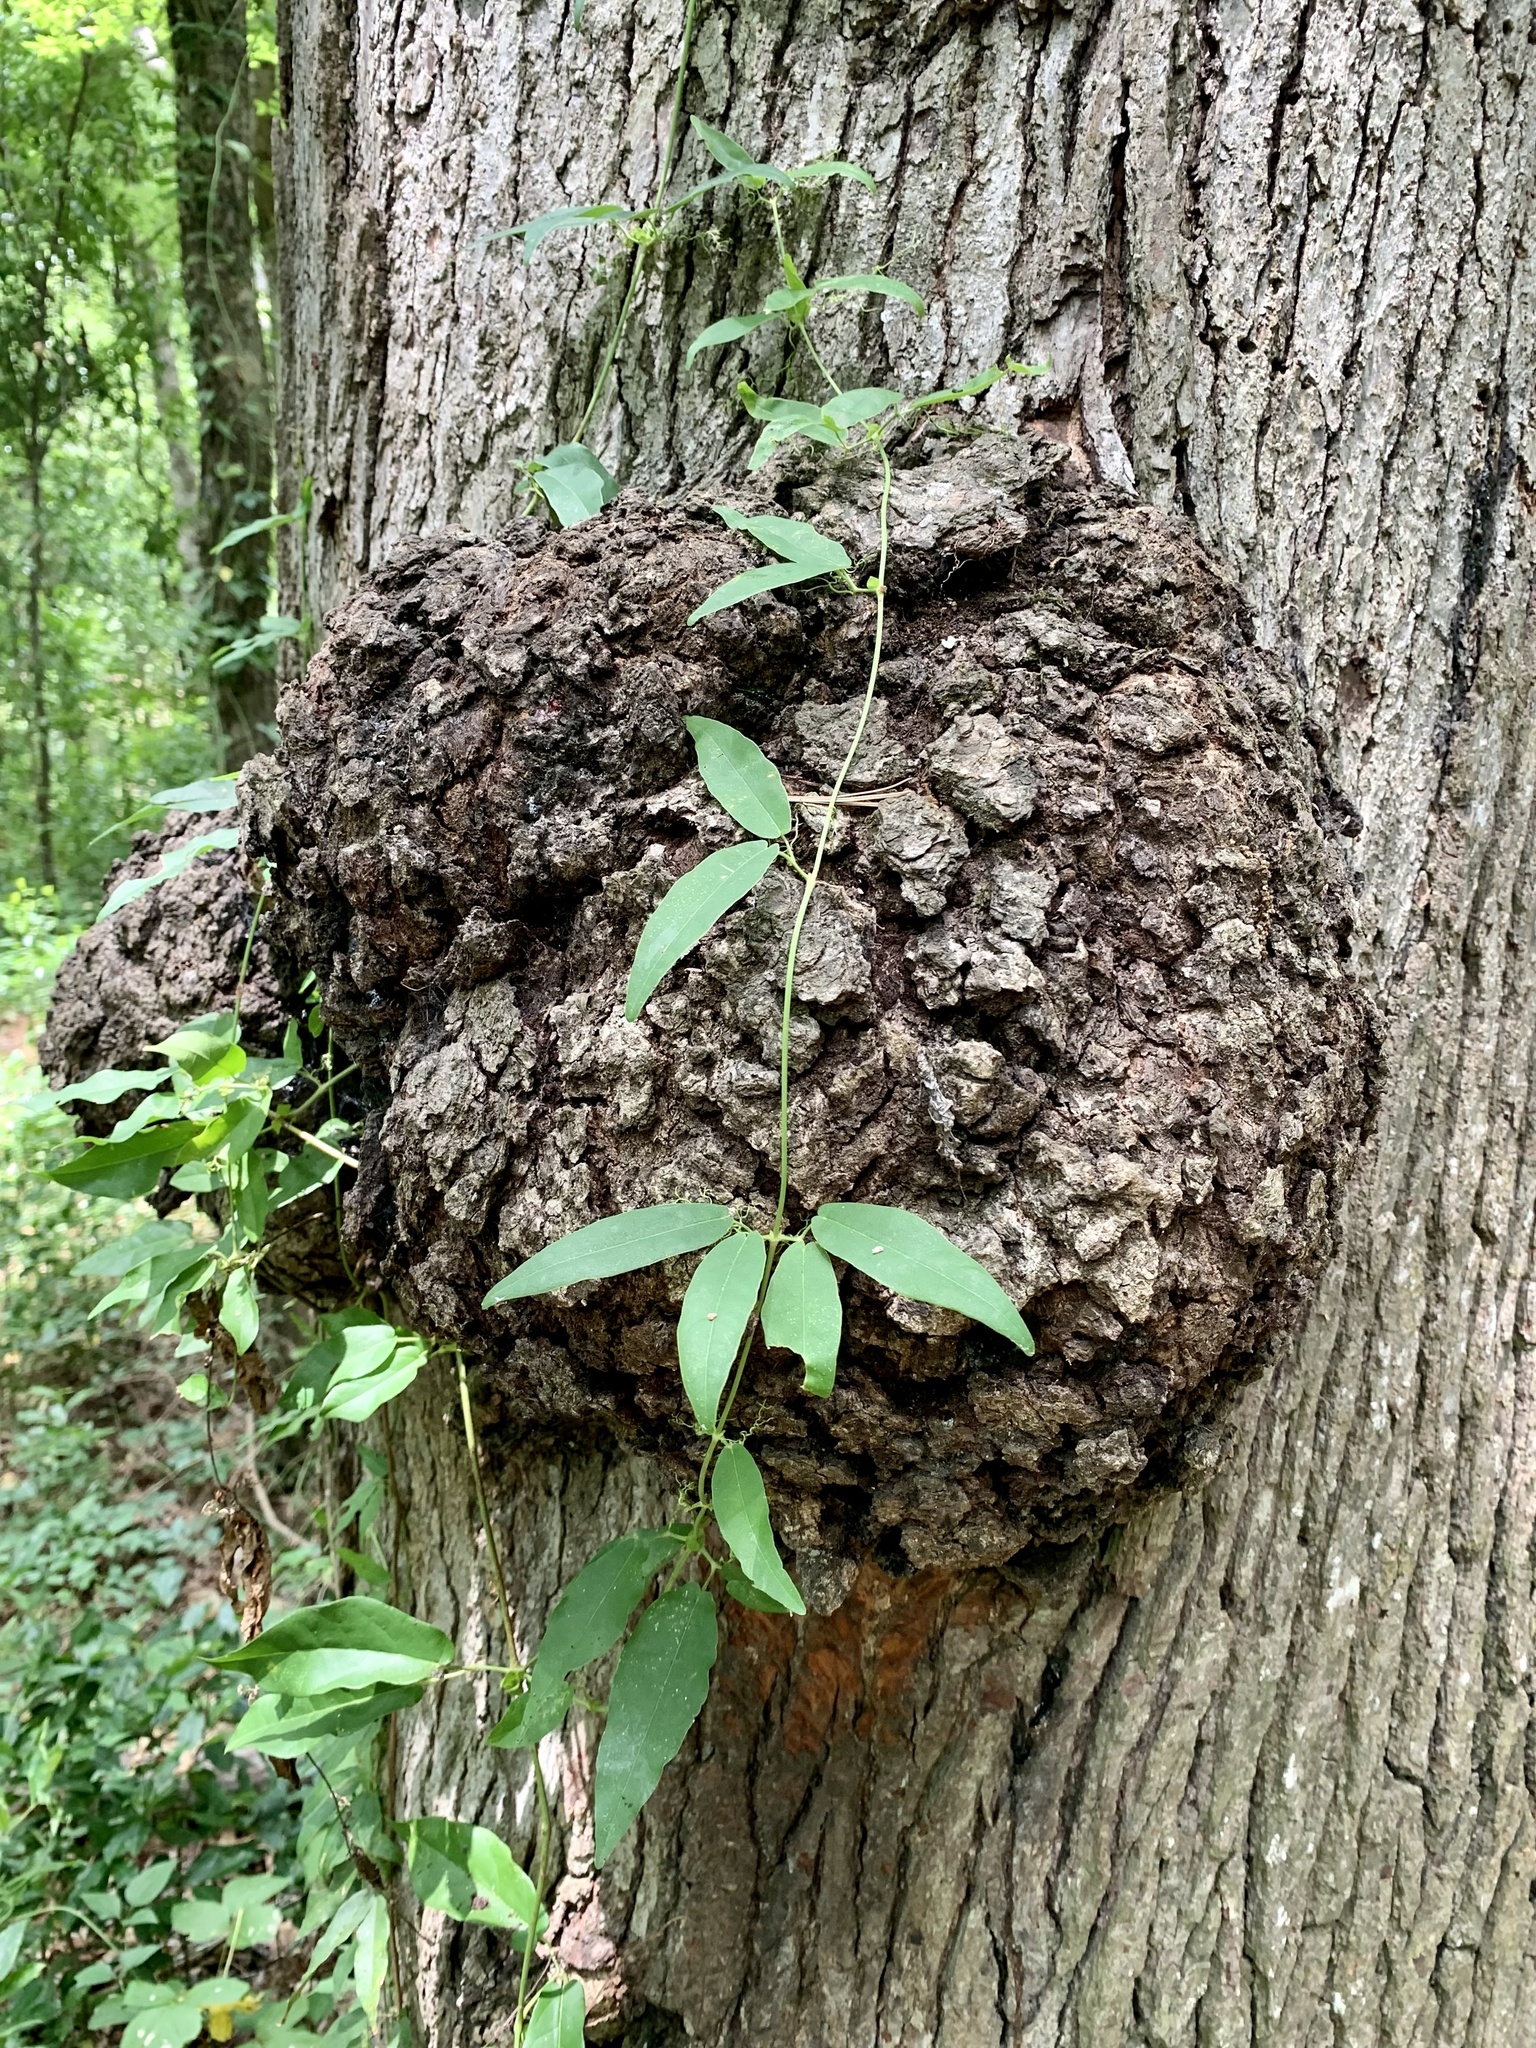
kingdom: Plantae
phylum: Tracheophyta
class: Magnoliopsida
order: Lamiales
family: Bignoniaceae
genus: Bignonia
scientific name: Bignonia capreolata
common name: Crossvine
